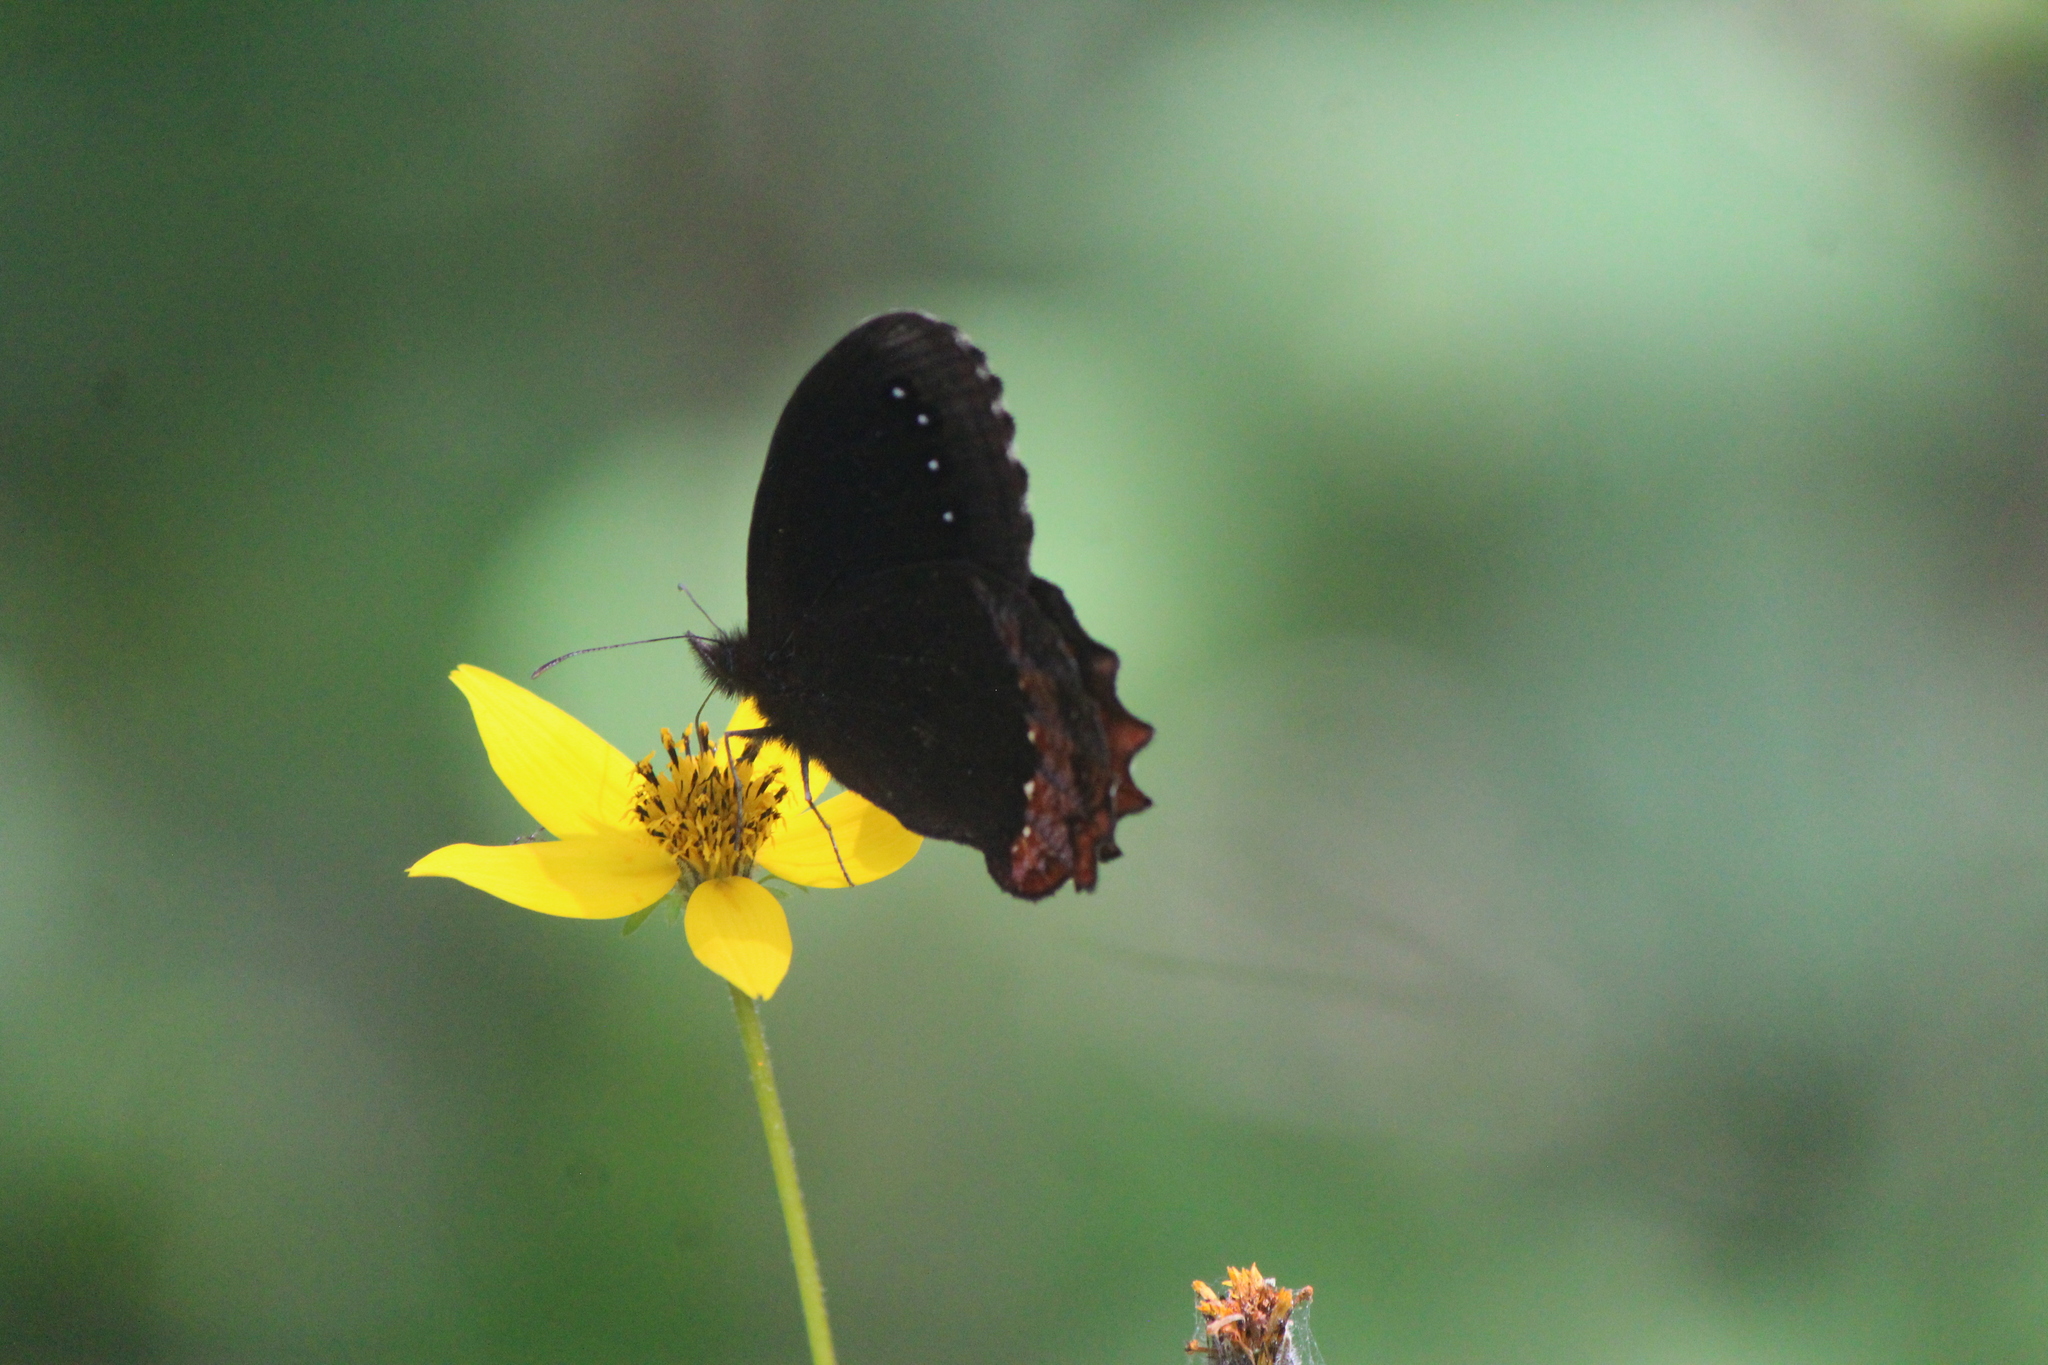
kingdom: Animalia
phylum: Arthropoda
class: Insecta
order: Lepidoptera
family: Nymphalidae
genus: Gyrocheilus
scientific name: Gyrocheilus patrobas
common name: Red-bordered satyr
